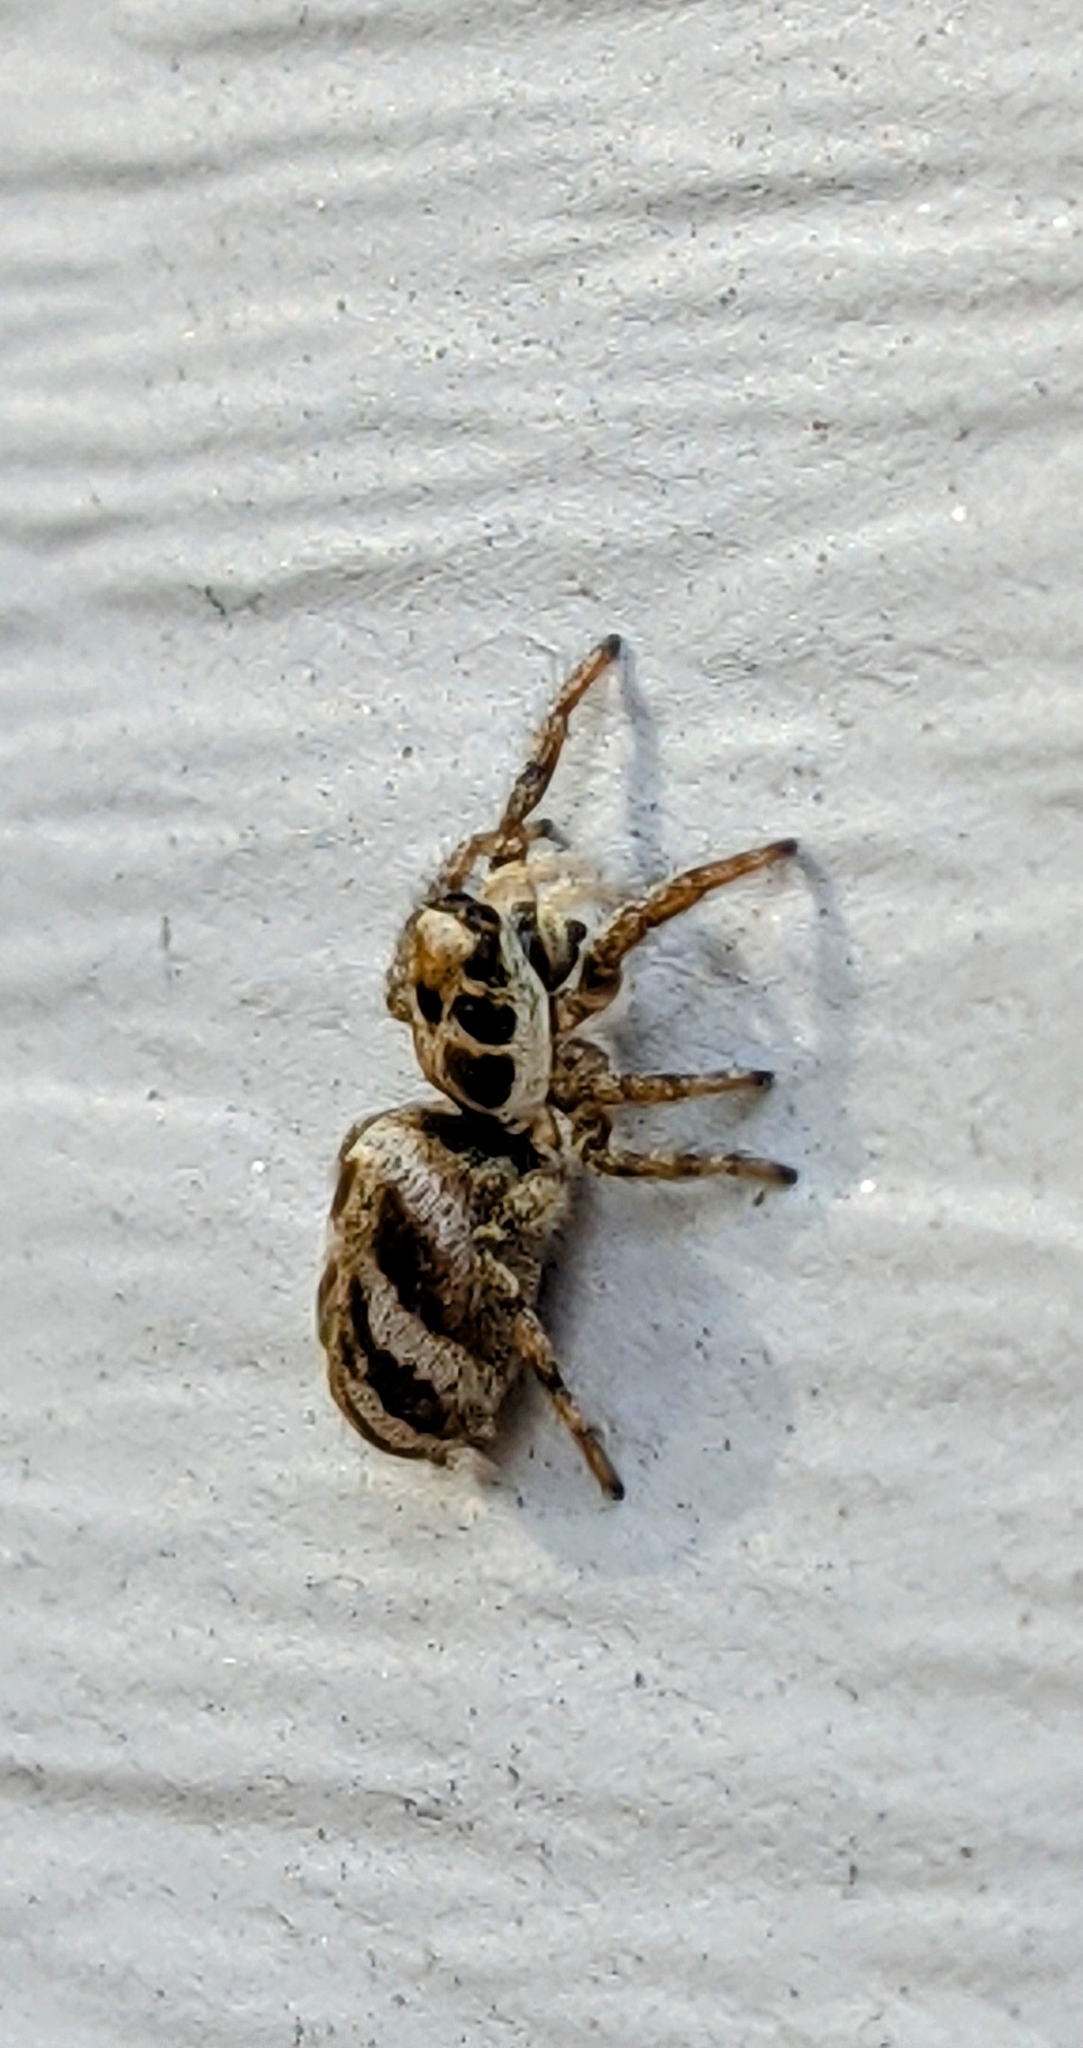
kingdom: Animalia
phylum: Arthropoda
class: Arachnida
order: Araneae
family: Salticidae
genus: Salticus
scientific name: Salticus scenicus
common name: Zebra jumper
